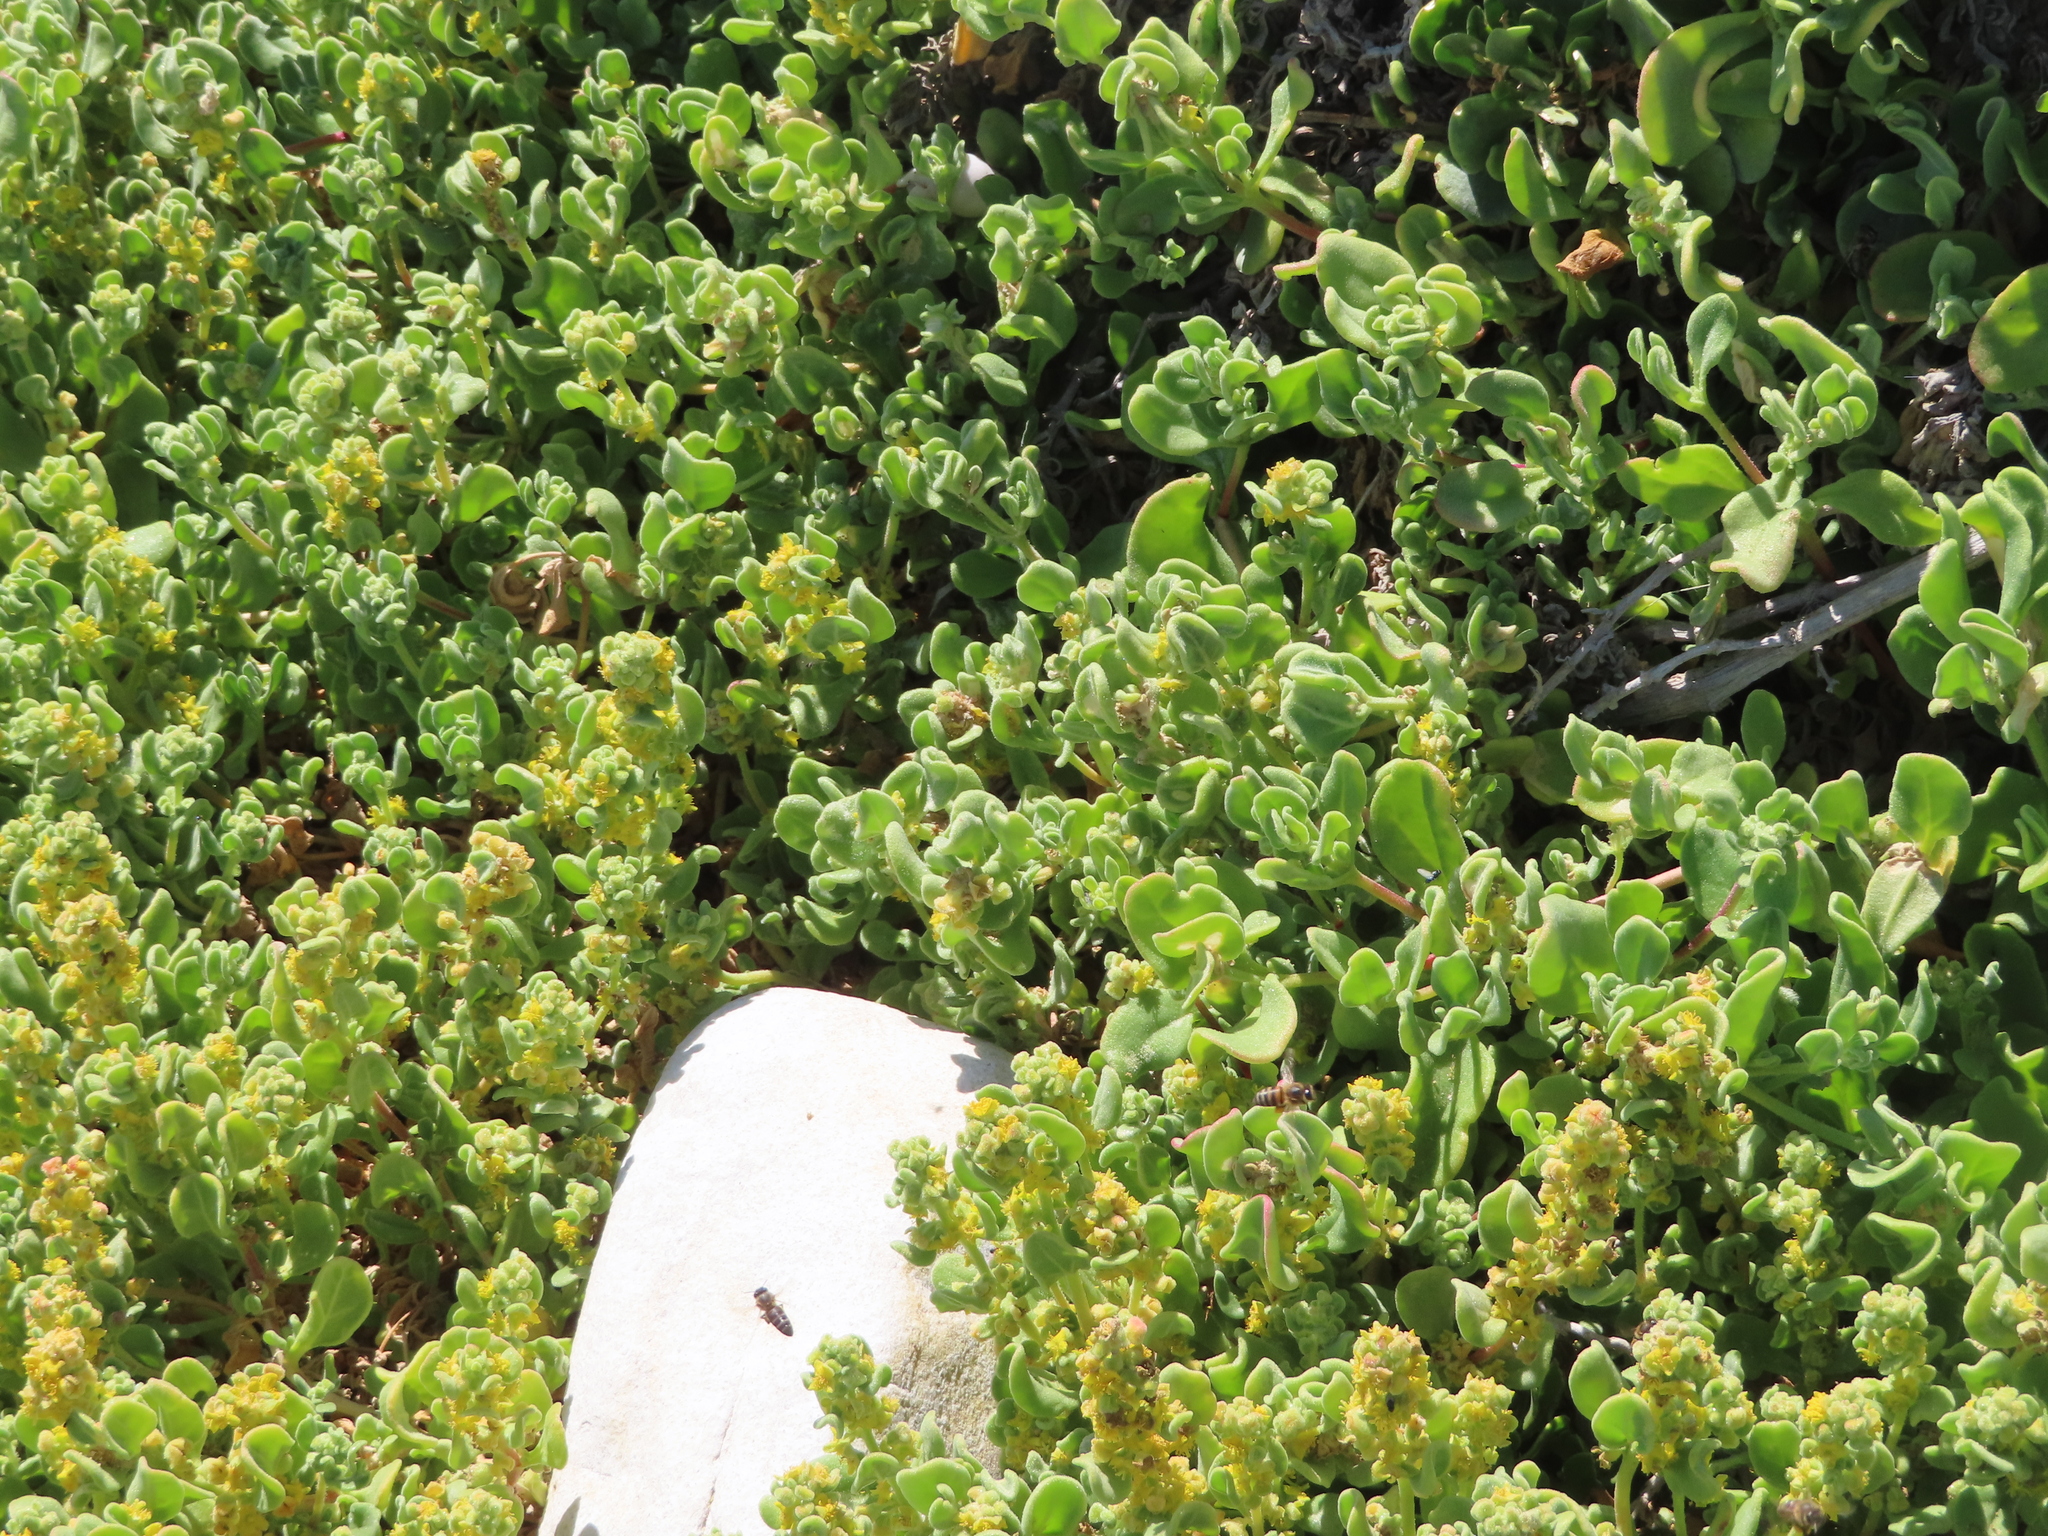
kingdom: Animalia
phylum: Arthropoda
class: Insecta
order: Hymenoptera
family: Apidae
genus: Apis
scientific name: Apis mellifera
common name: Honey bee
